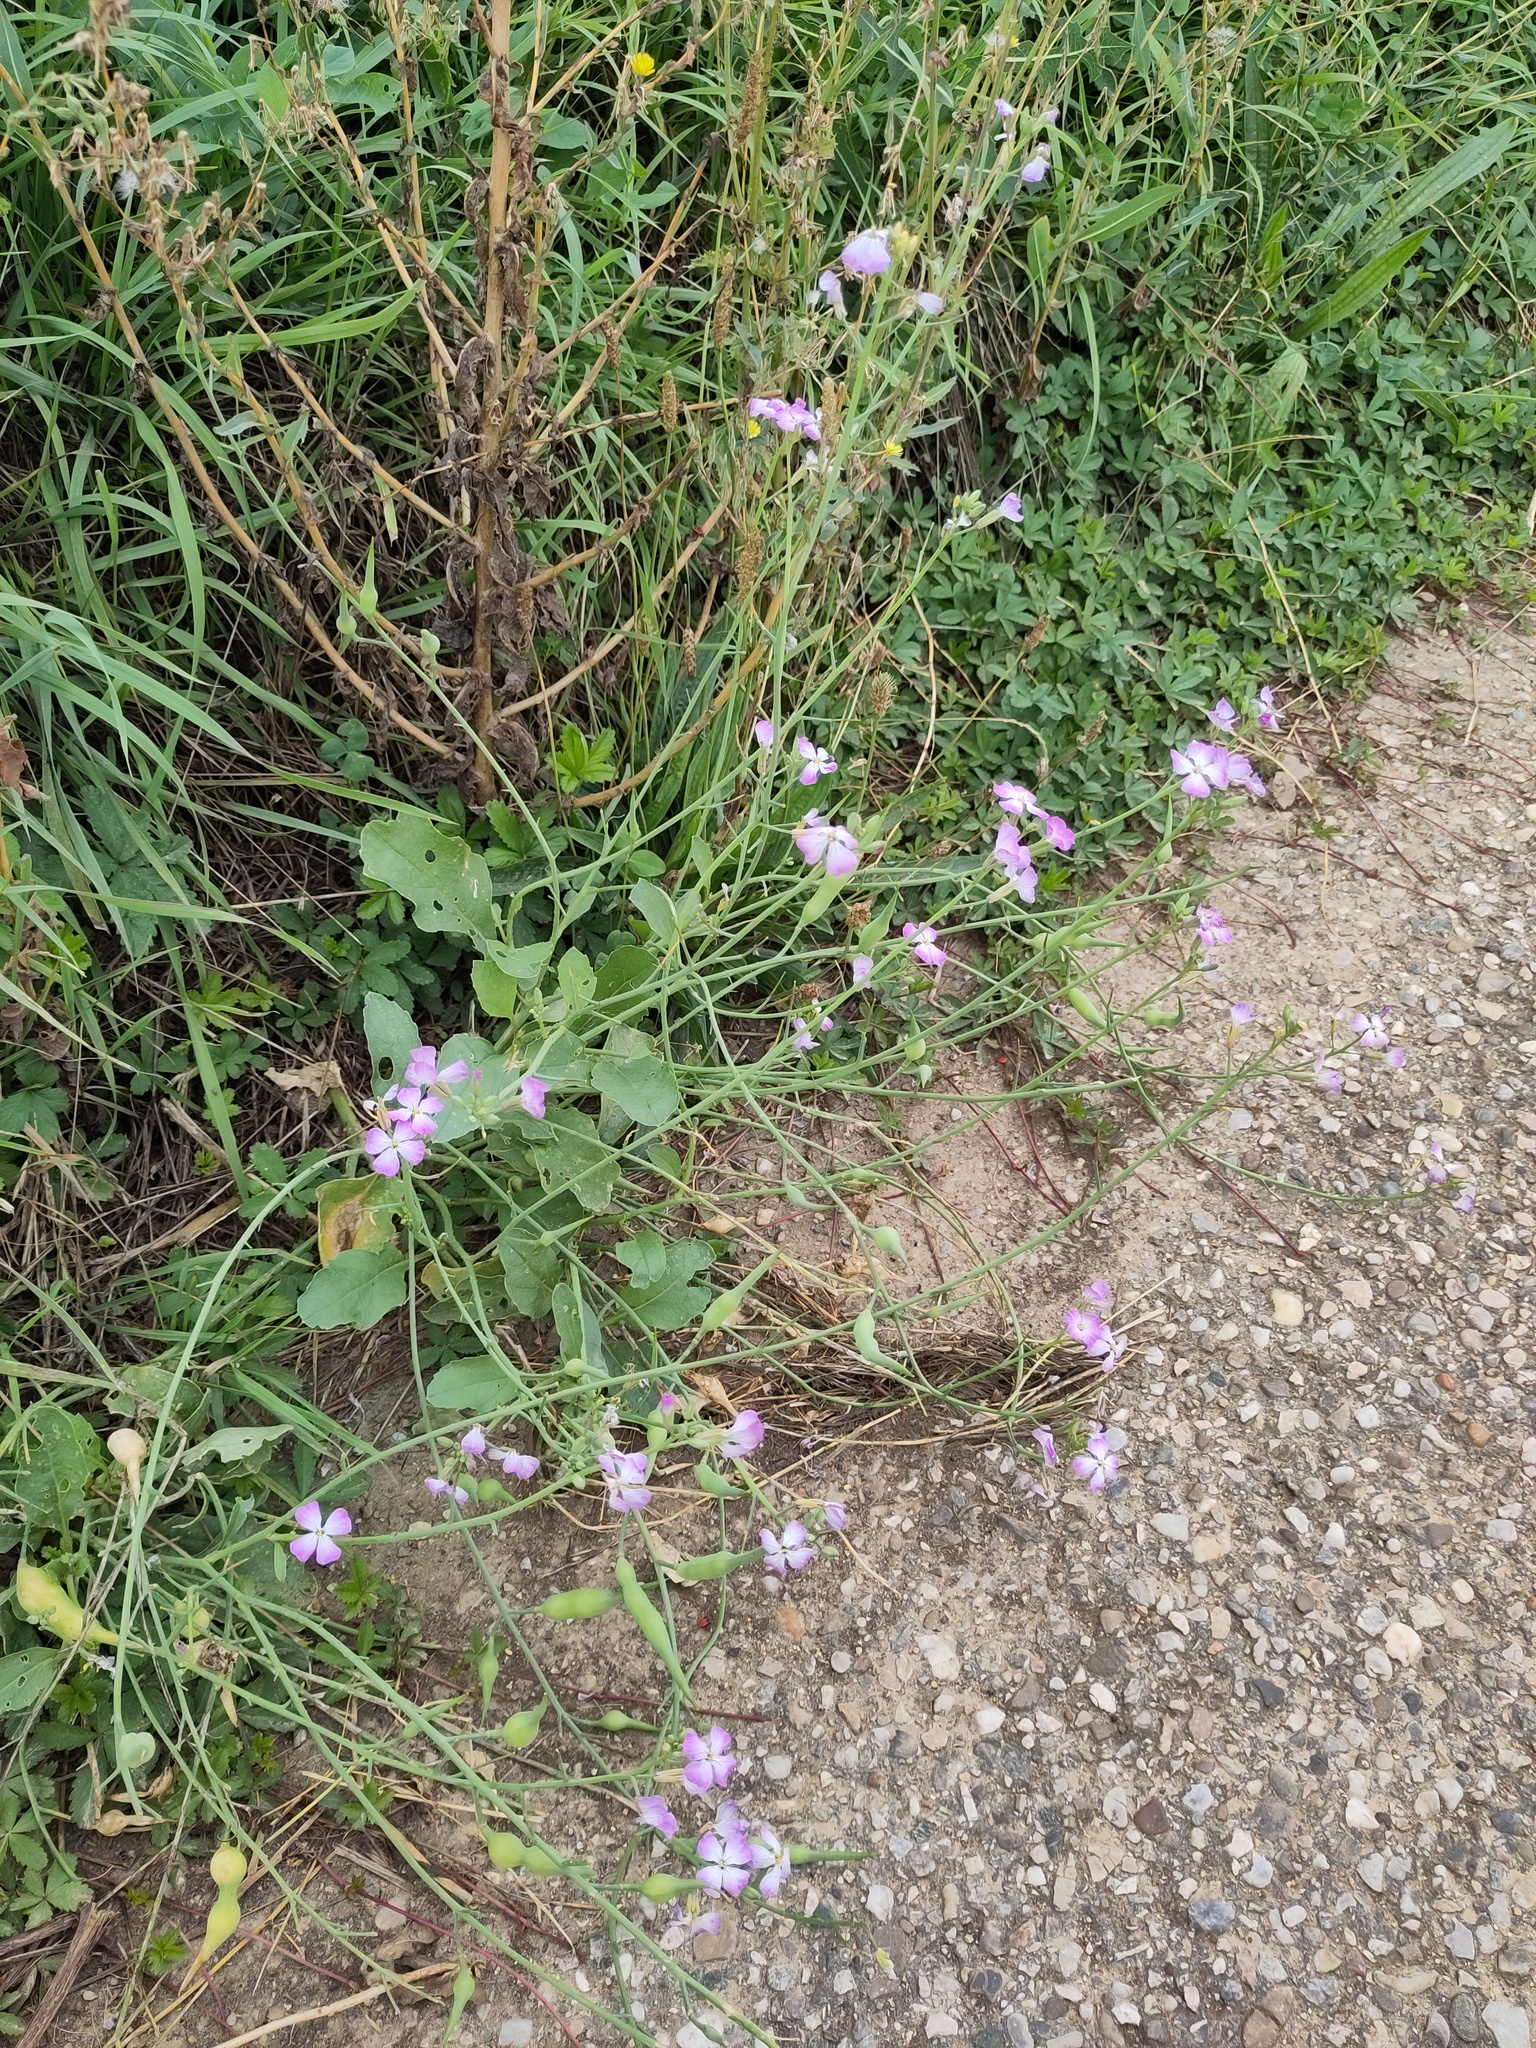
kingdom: Plantae
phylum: Tracheophyta
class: Magnoliopsida
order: Brassicales
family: Brassicaceae
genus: Raphanus
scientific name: Raphanus sativus
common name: Cultivated radish
